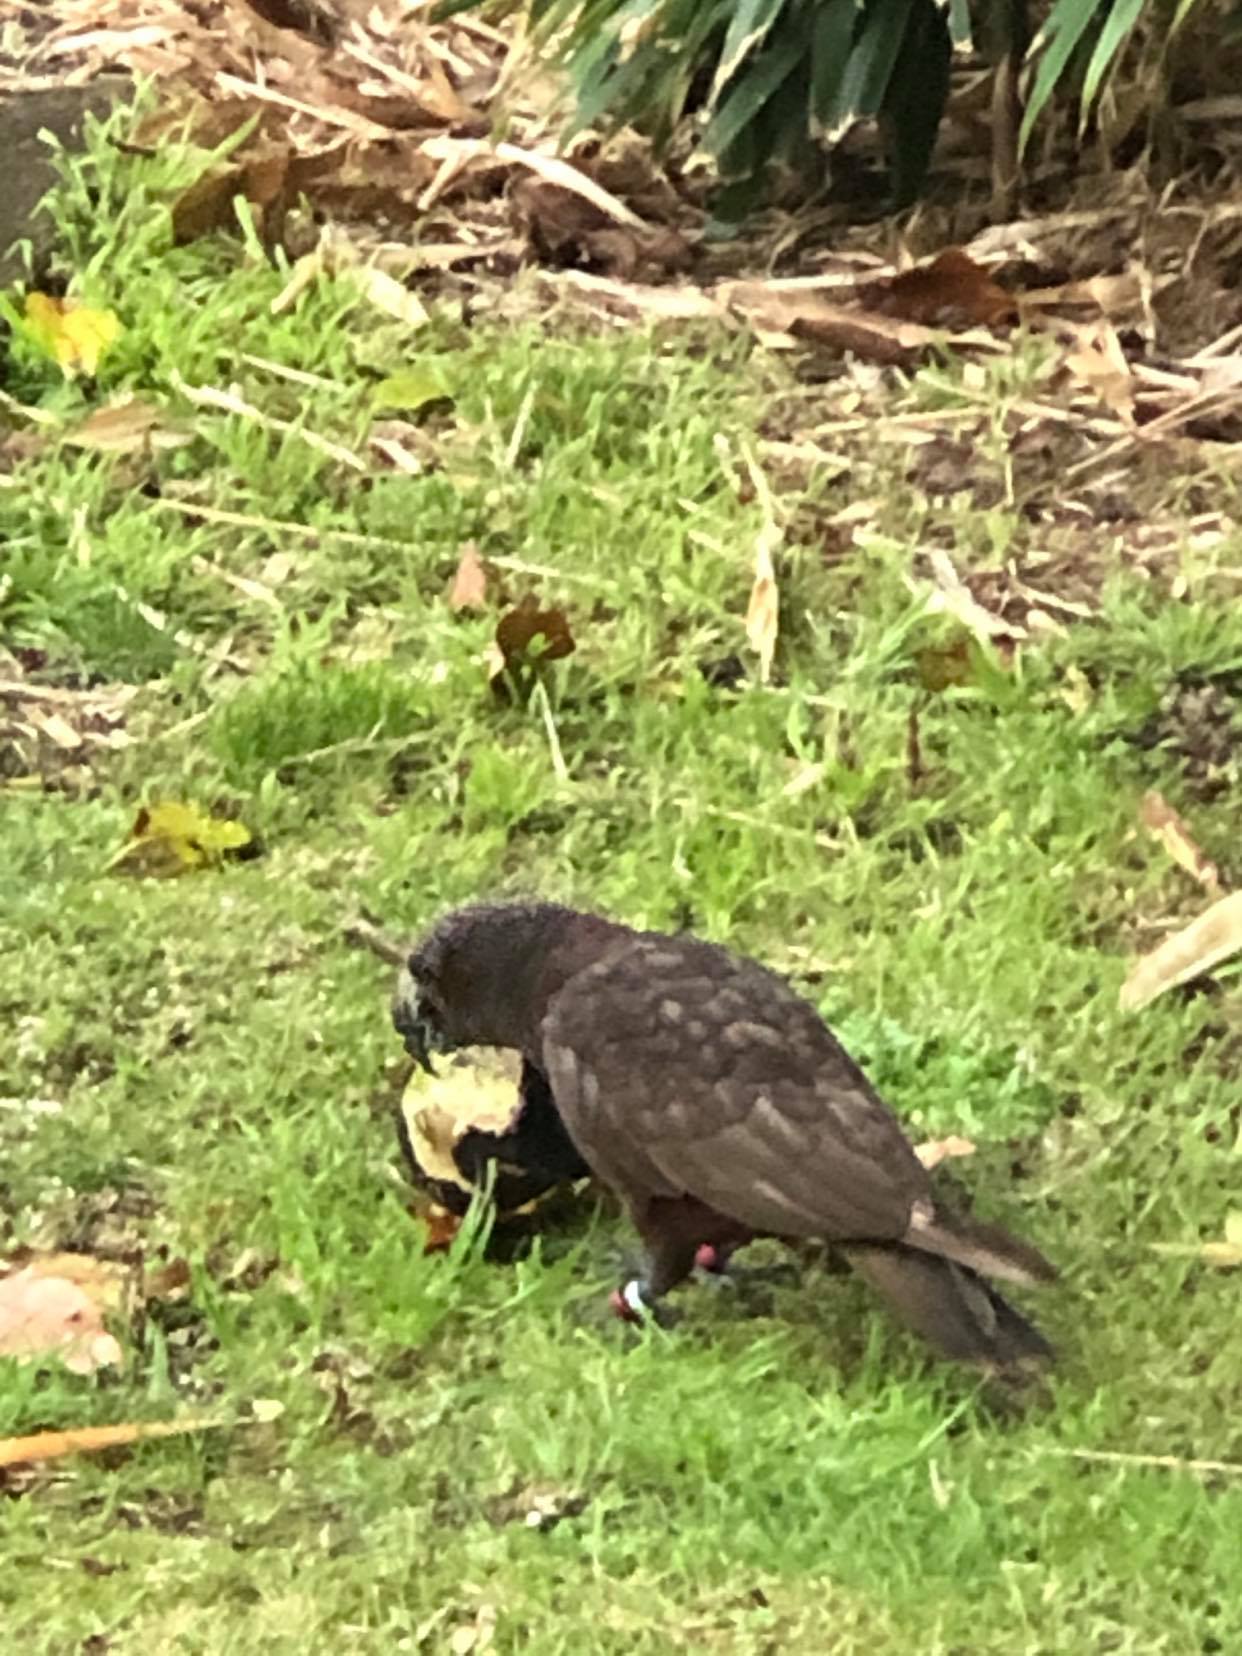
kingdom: Animalia
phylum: Chordata
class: Aves
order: Psittaciformes
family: Psittacidae
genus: Nestor
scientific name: Nestor meridionalis
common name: New zealand kaka
